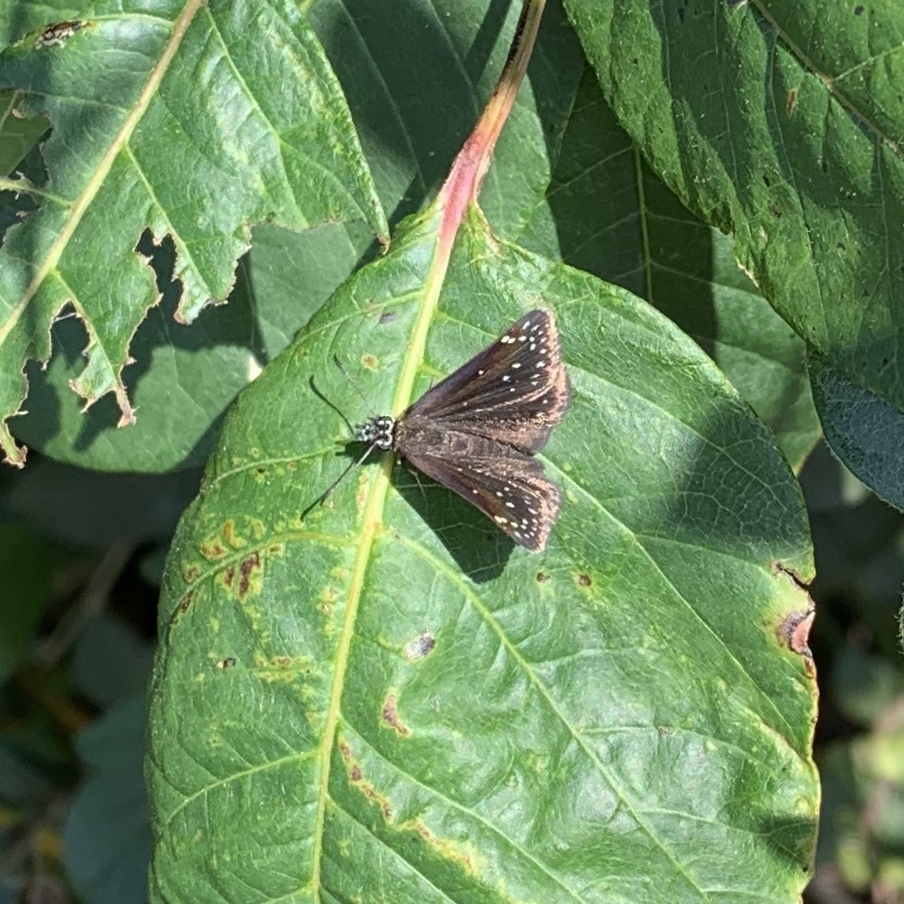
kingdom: Animalia
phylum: Arthropoda
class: Insecta
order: Lepidoptera
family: Hesperiidae
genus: Pholisora
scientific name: Pholisora catullus
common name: Common sootywing
